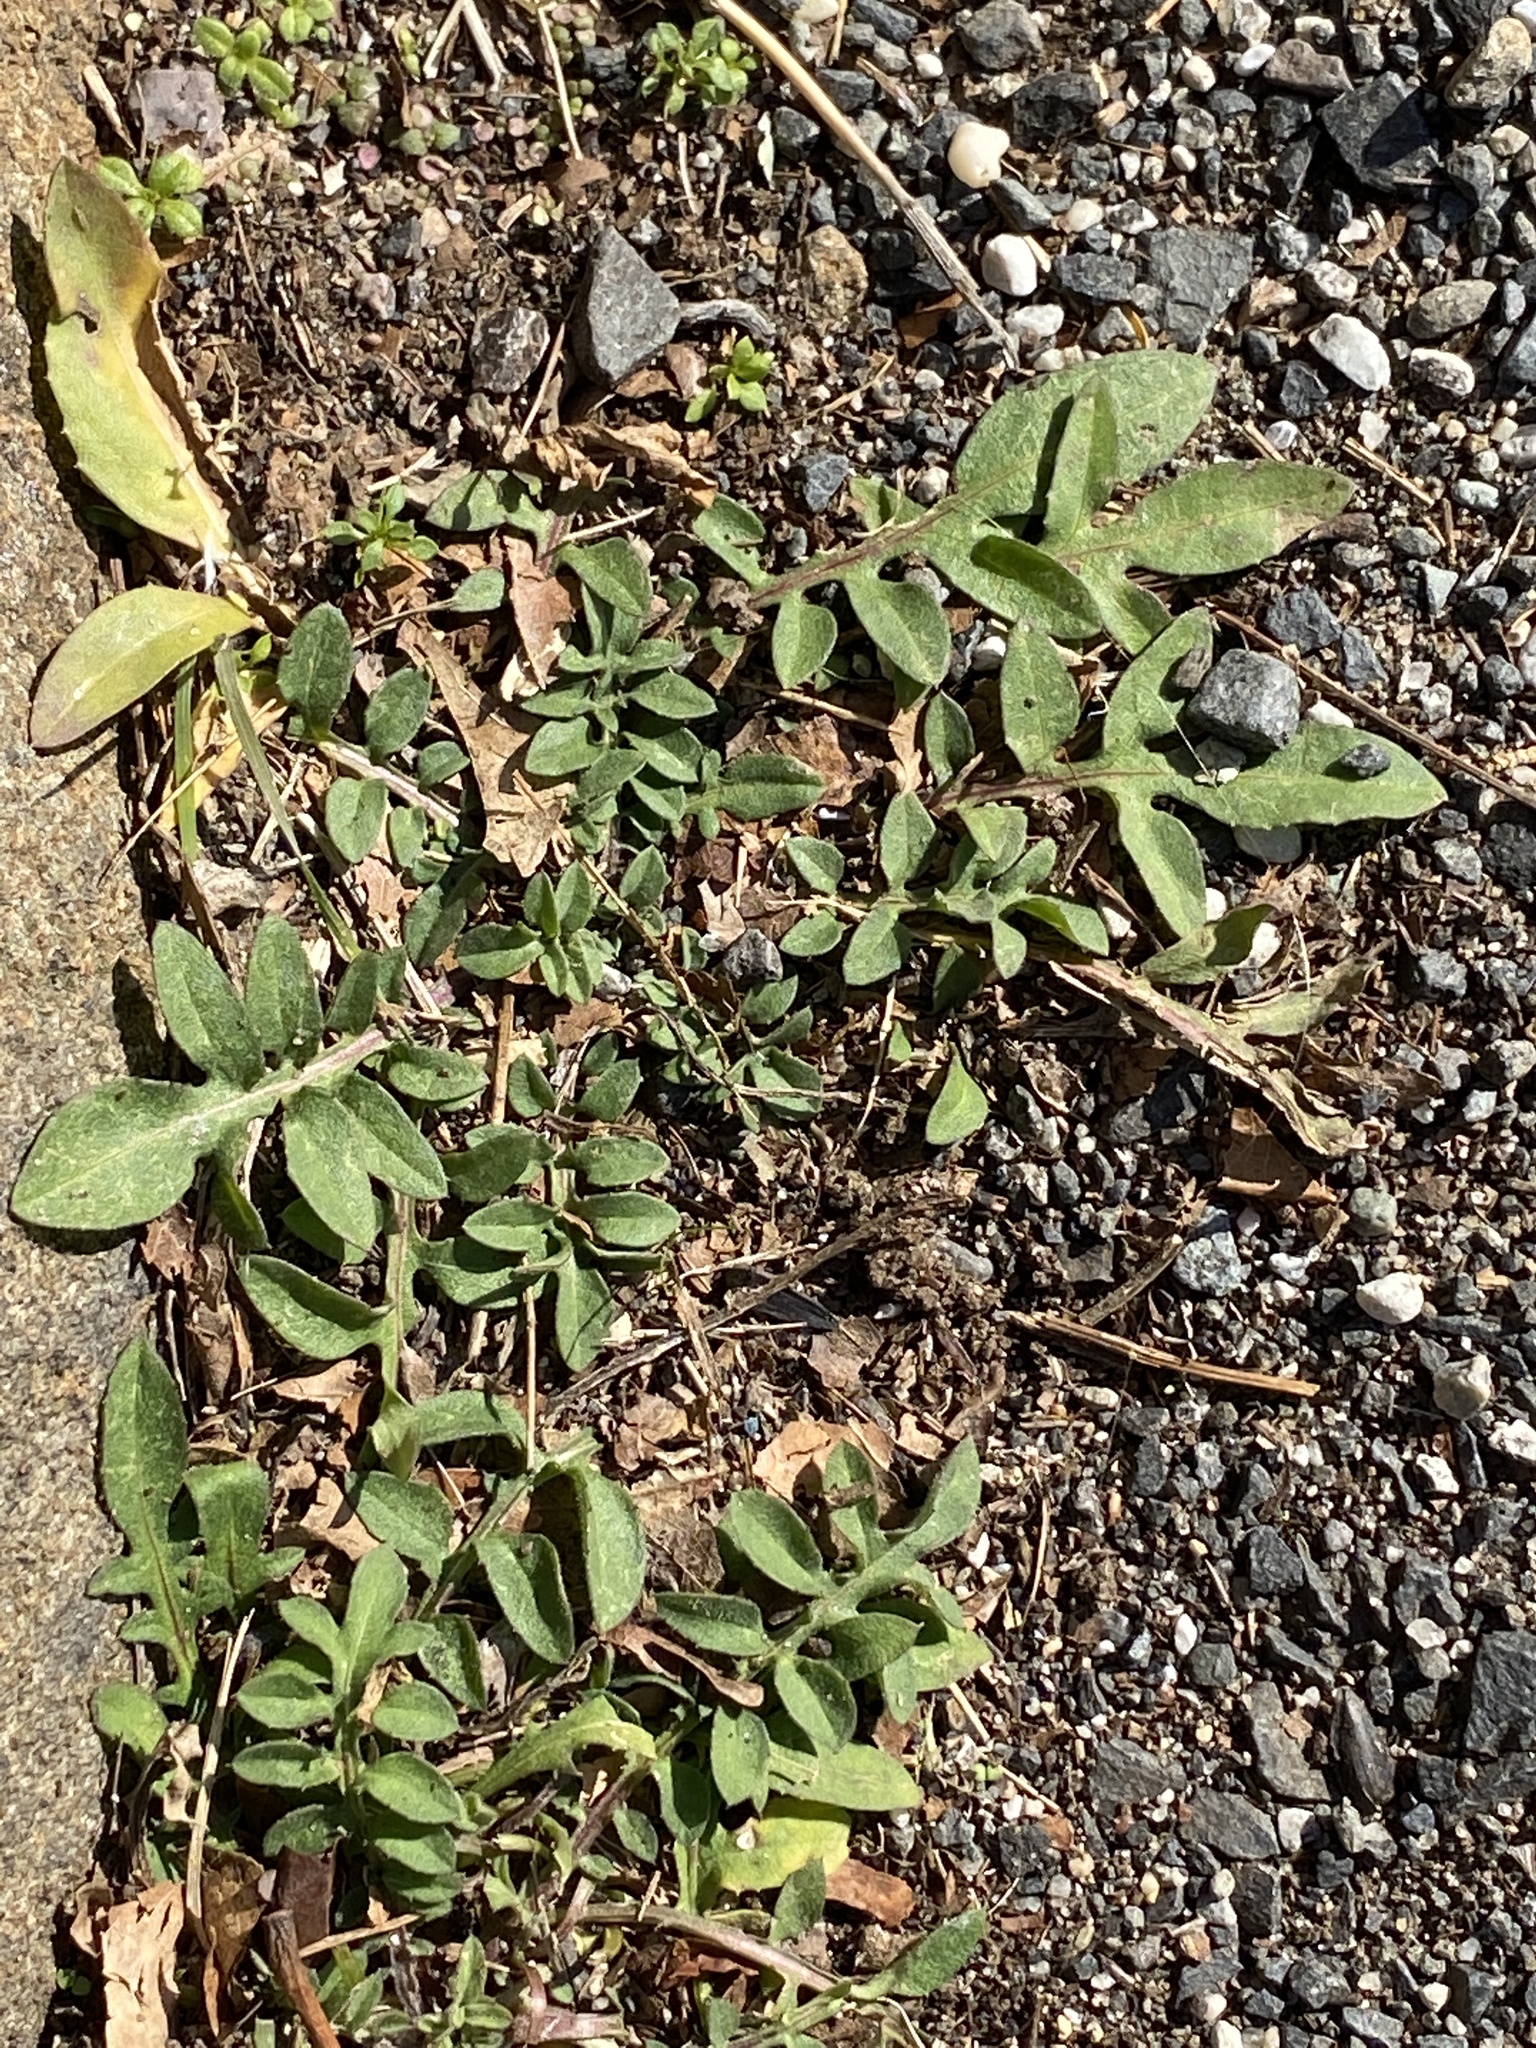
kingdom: Plantae
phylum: Tracheophyta
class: Magnoliopsida
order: Asterales
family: Asteraceae
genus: Centaurea
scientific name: Centaurea stoebe
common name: Spotted knapweed
